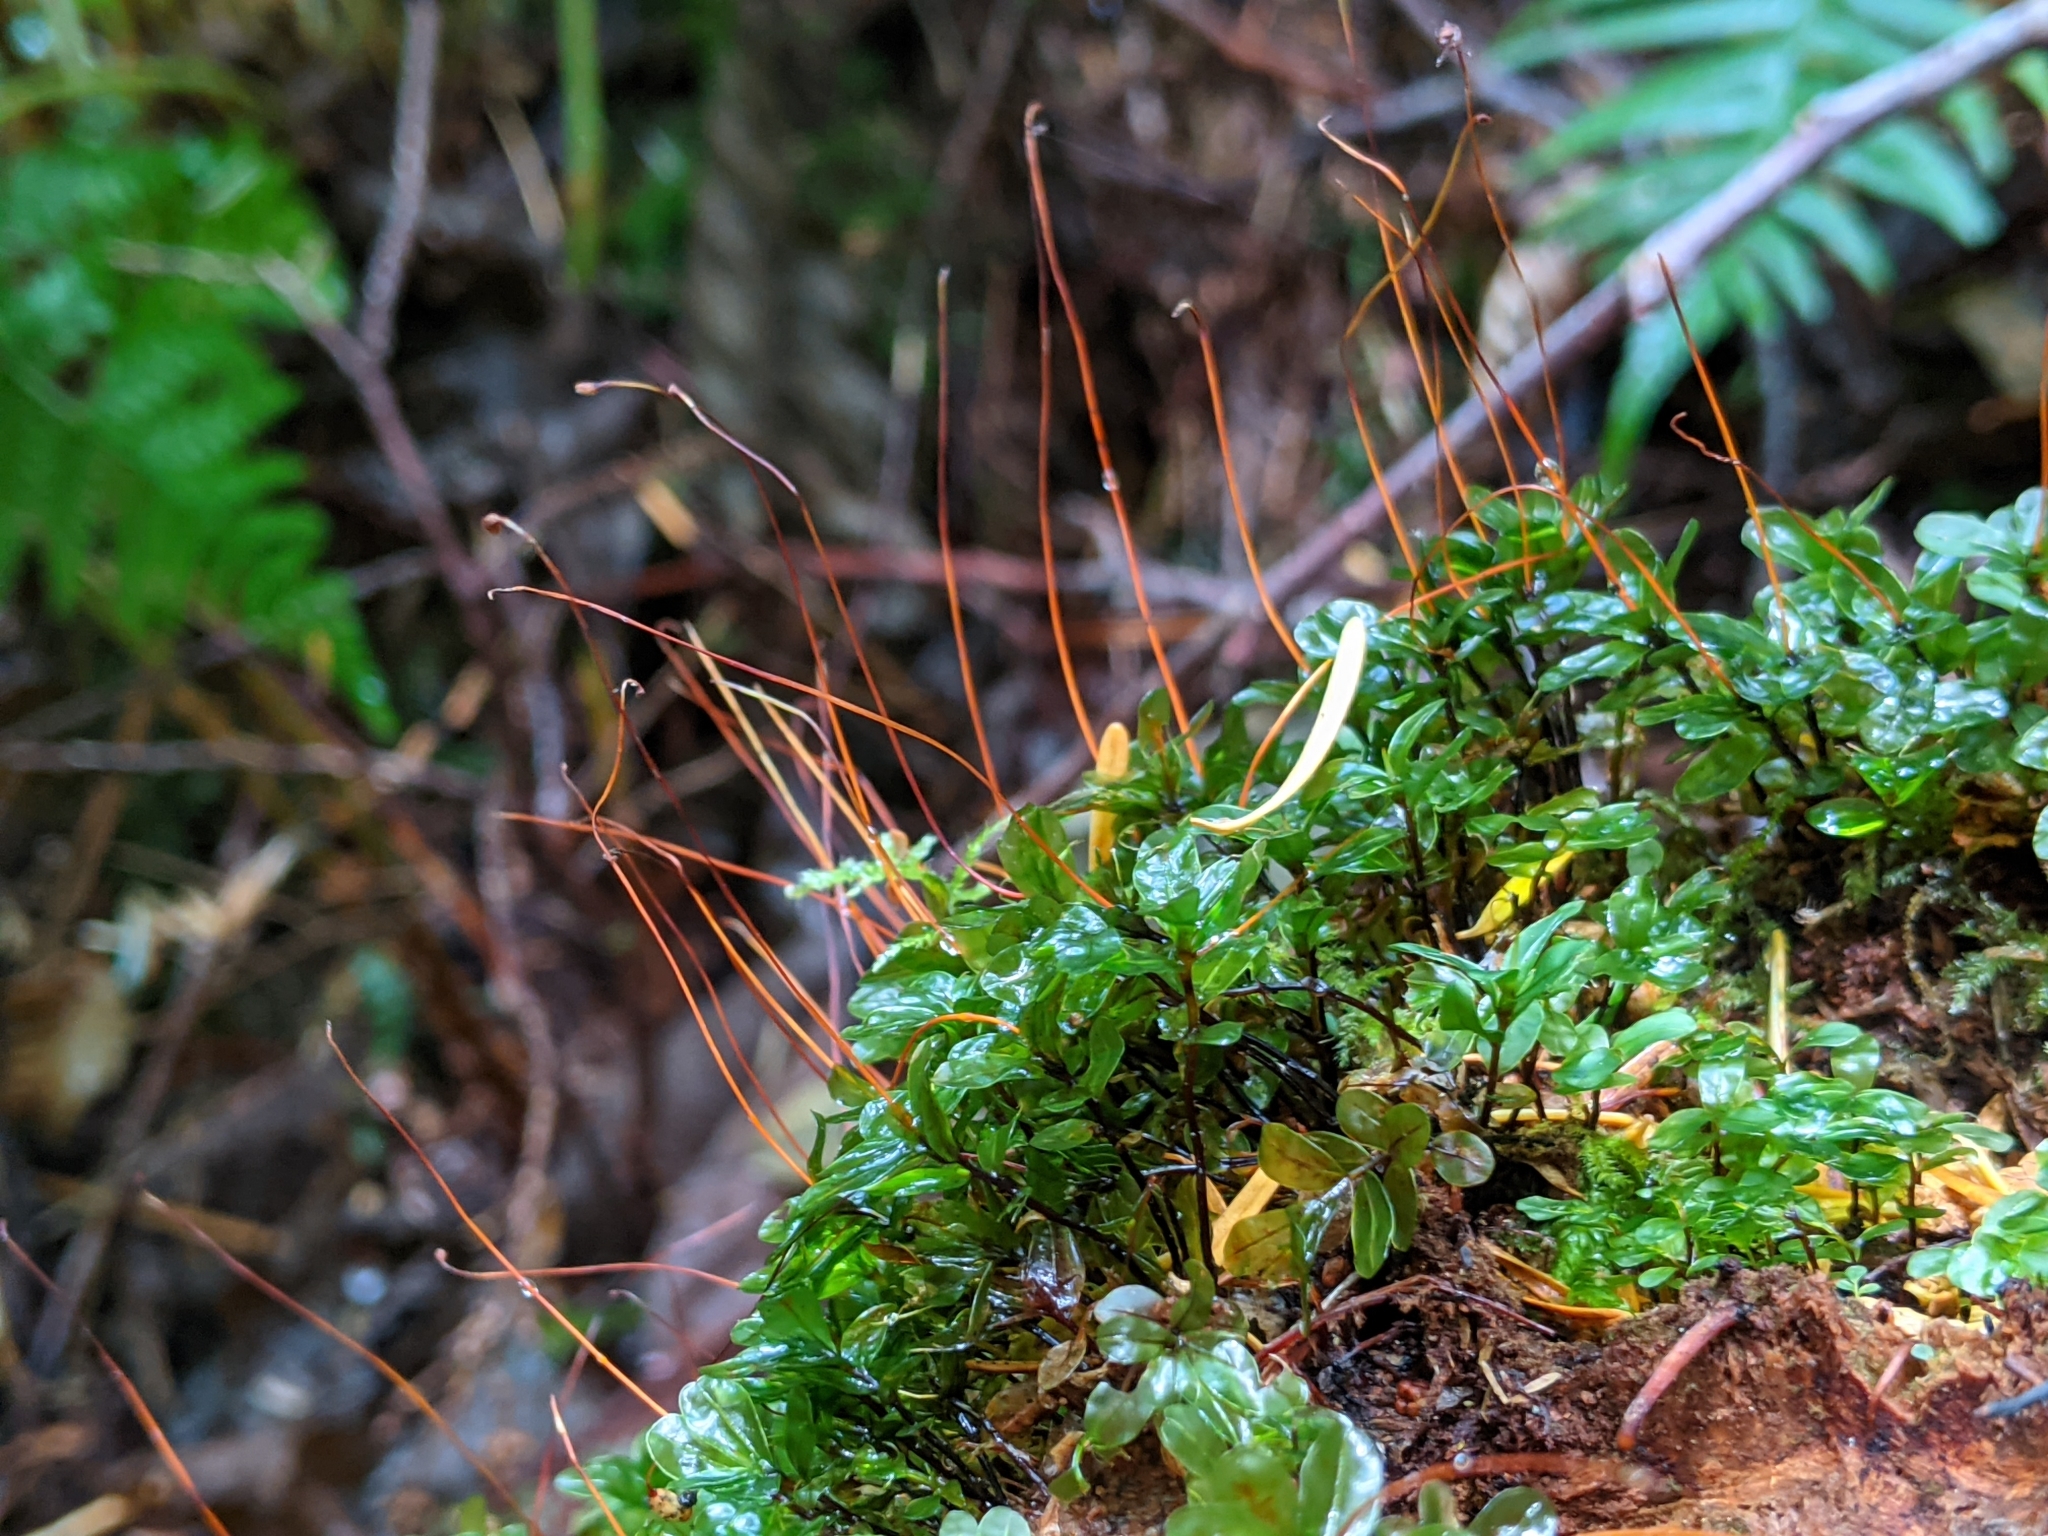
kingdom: Plantae
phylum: Bryophyta
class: Bryopsida
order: Bryales
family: Mniaceae
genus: Rhizomnium
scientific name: Rhizomnium glabrescens
